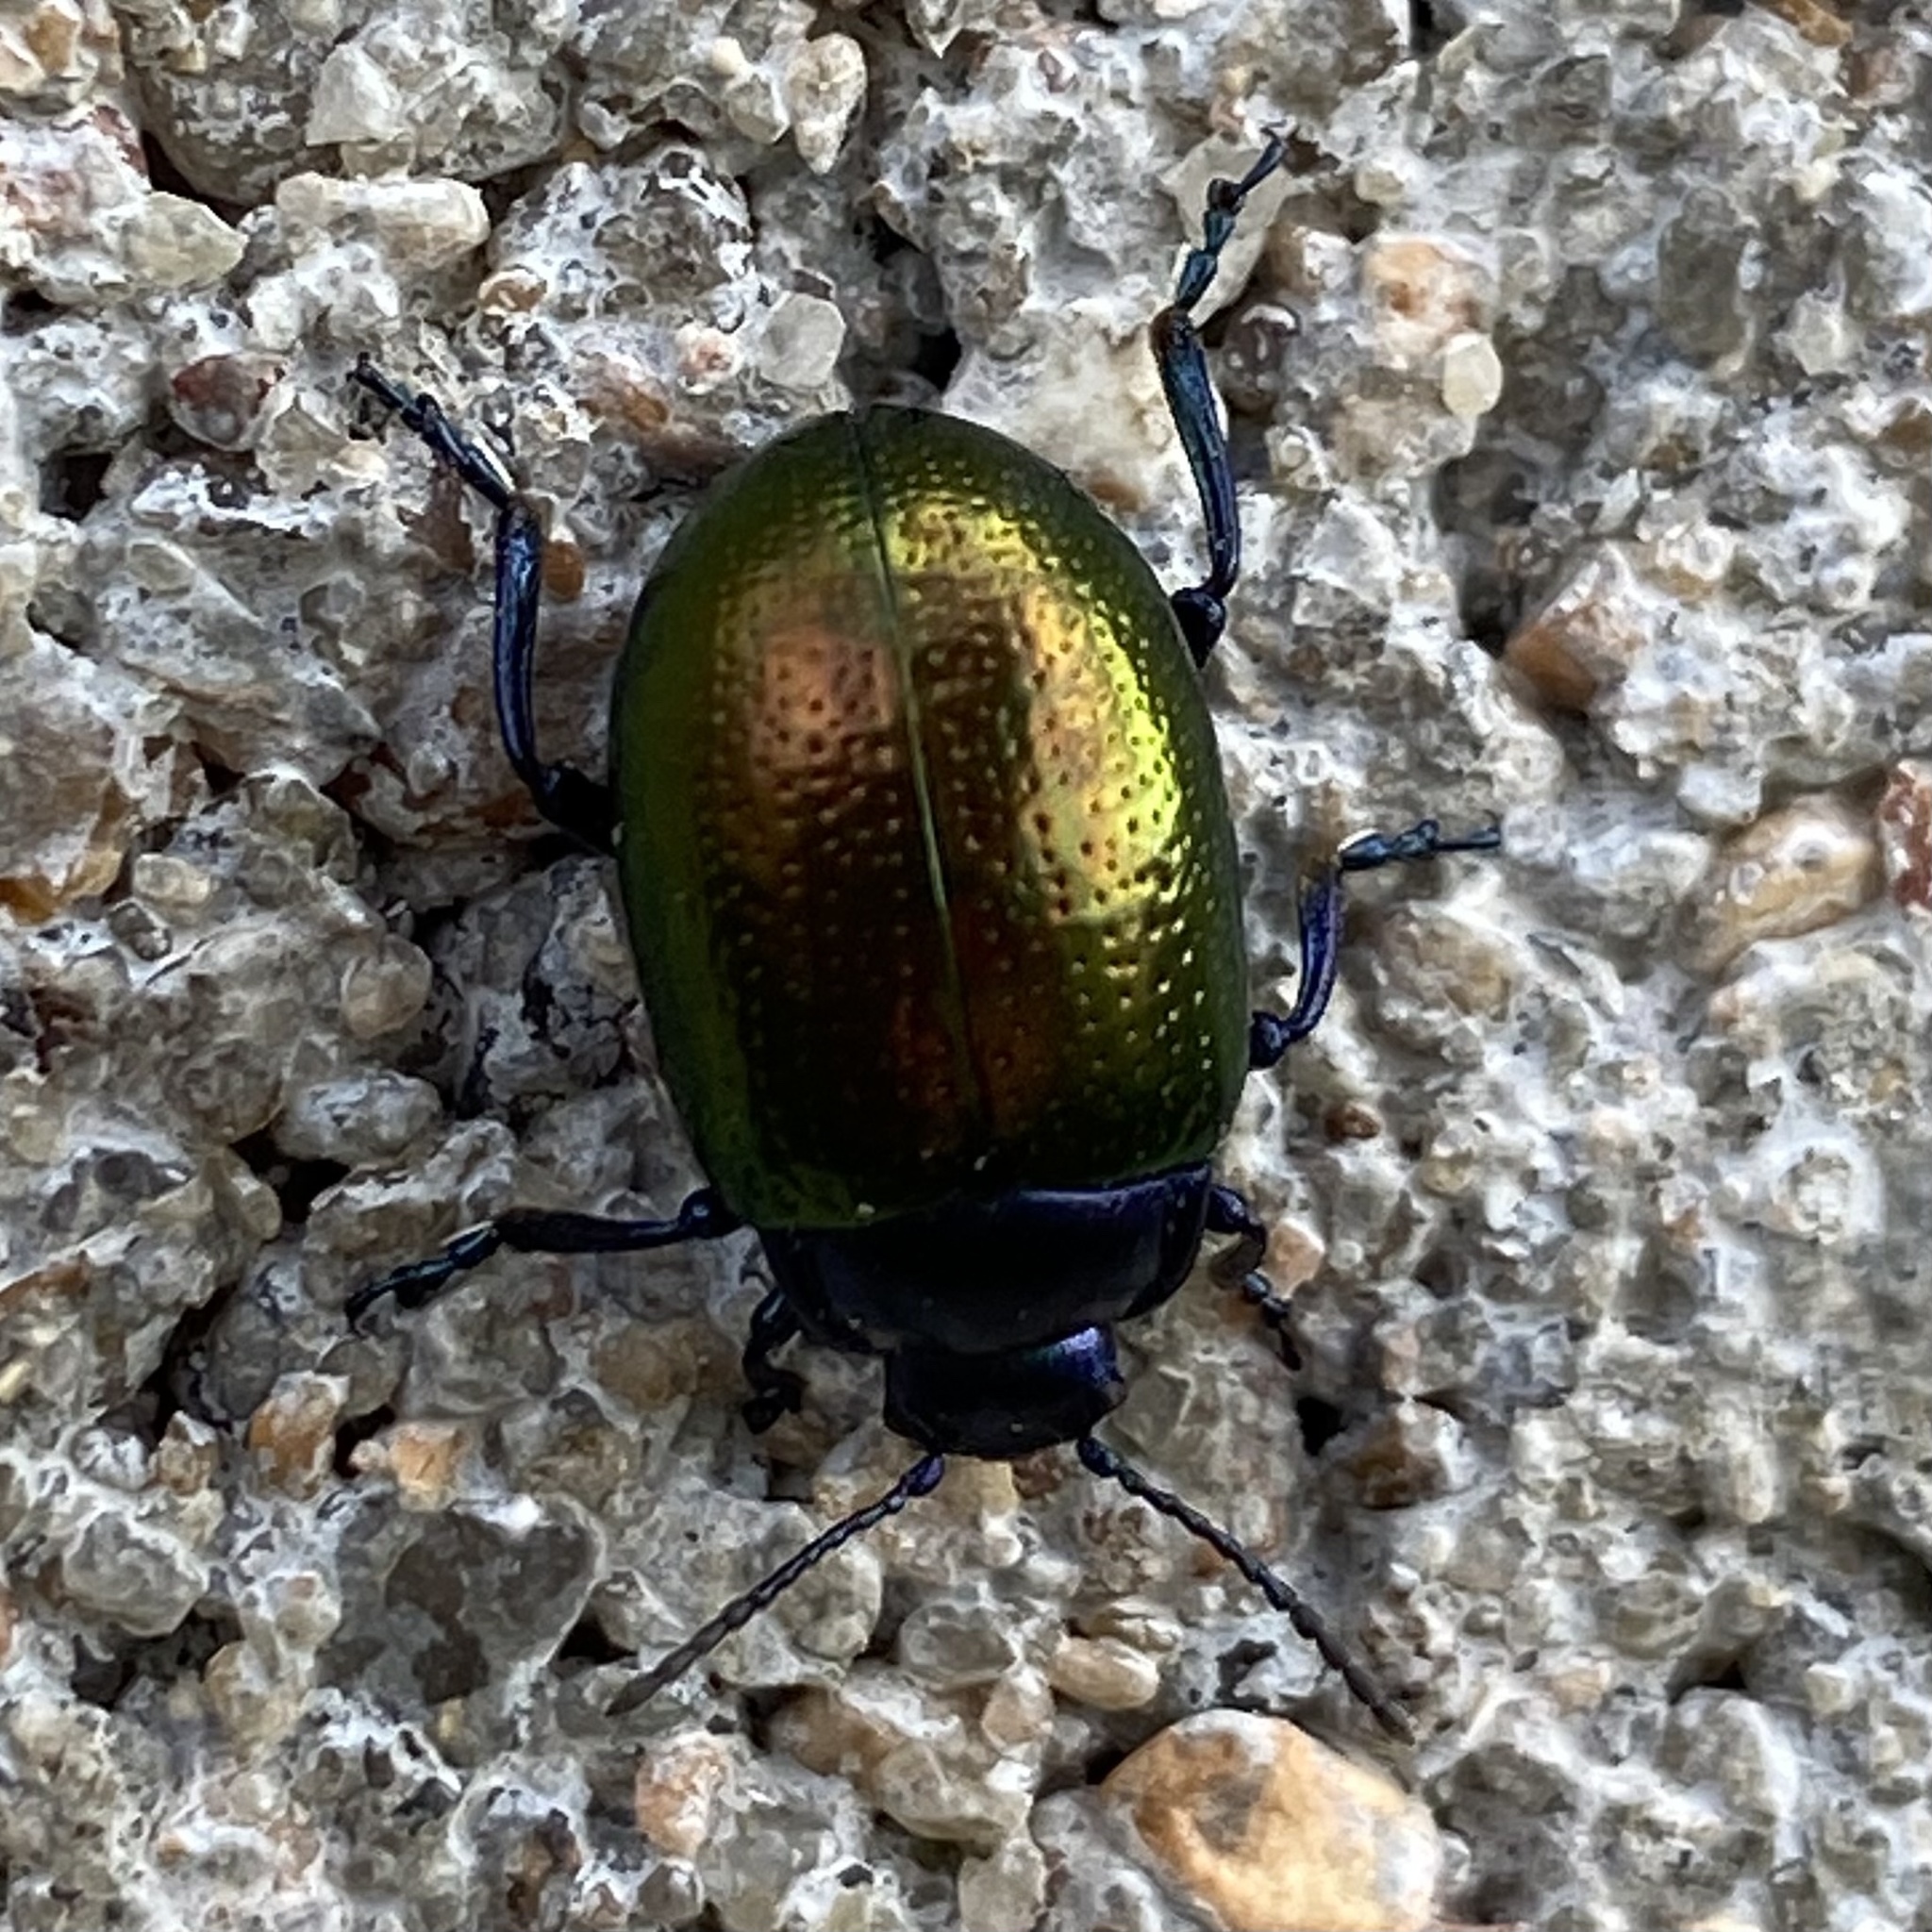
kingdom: Animalia
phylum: Arthropoda
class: Insecta
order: Coleoptera
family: Chrysomelidae
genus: Chrysolina
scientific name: Chrysolina auripennis
